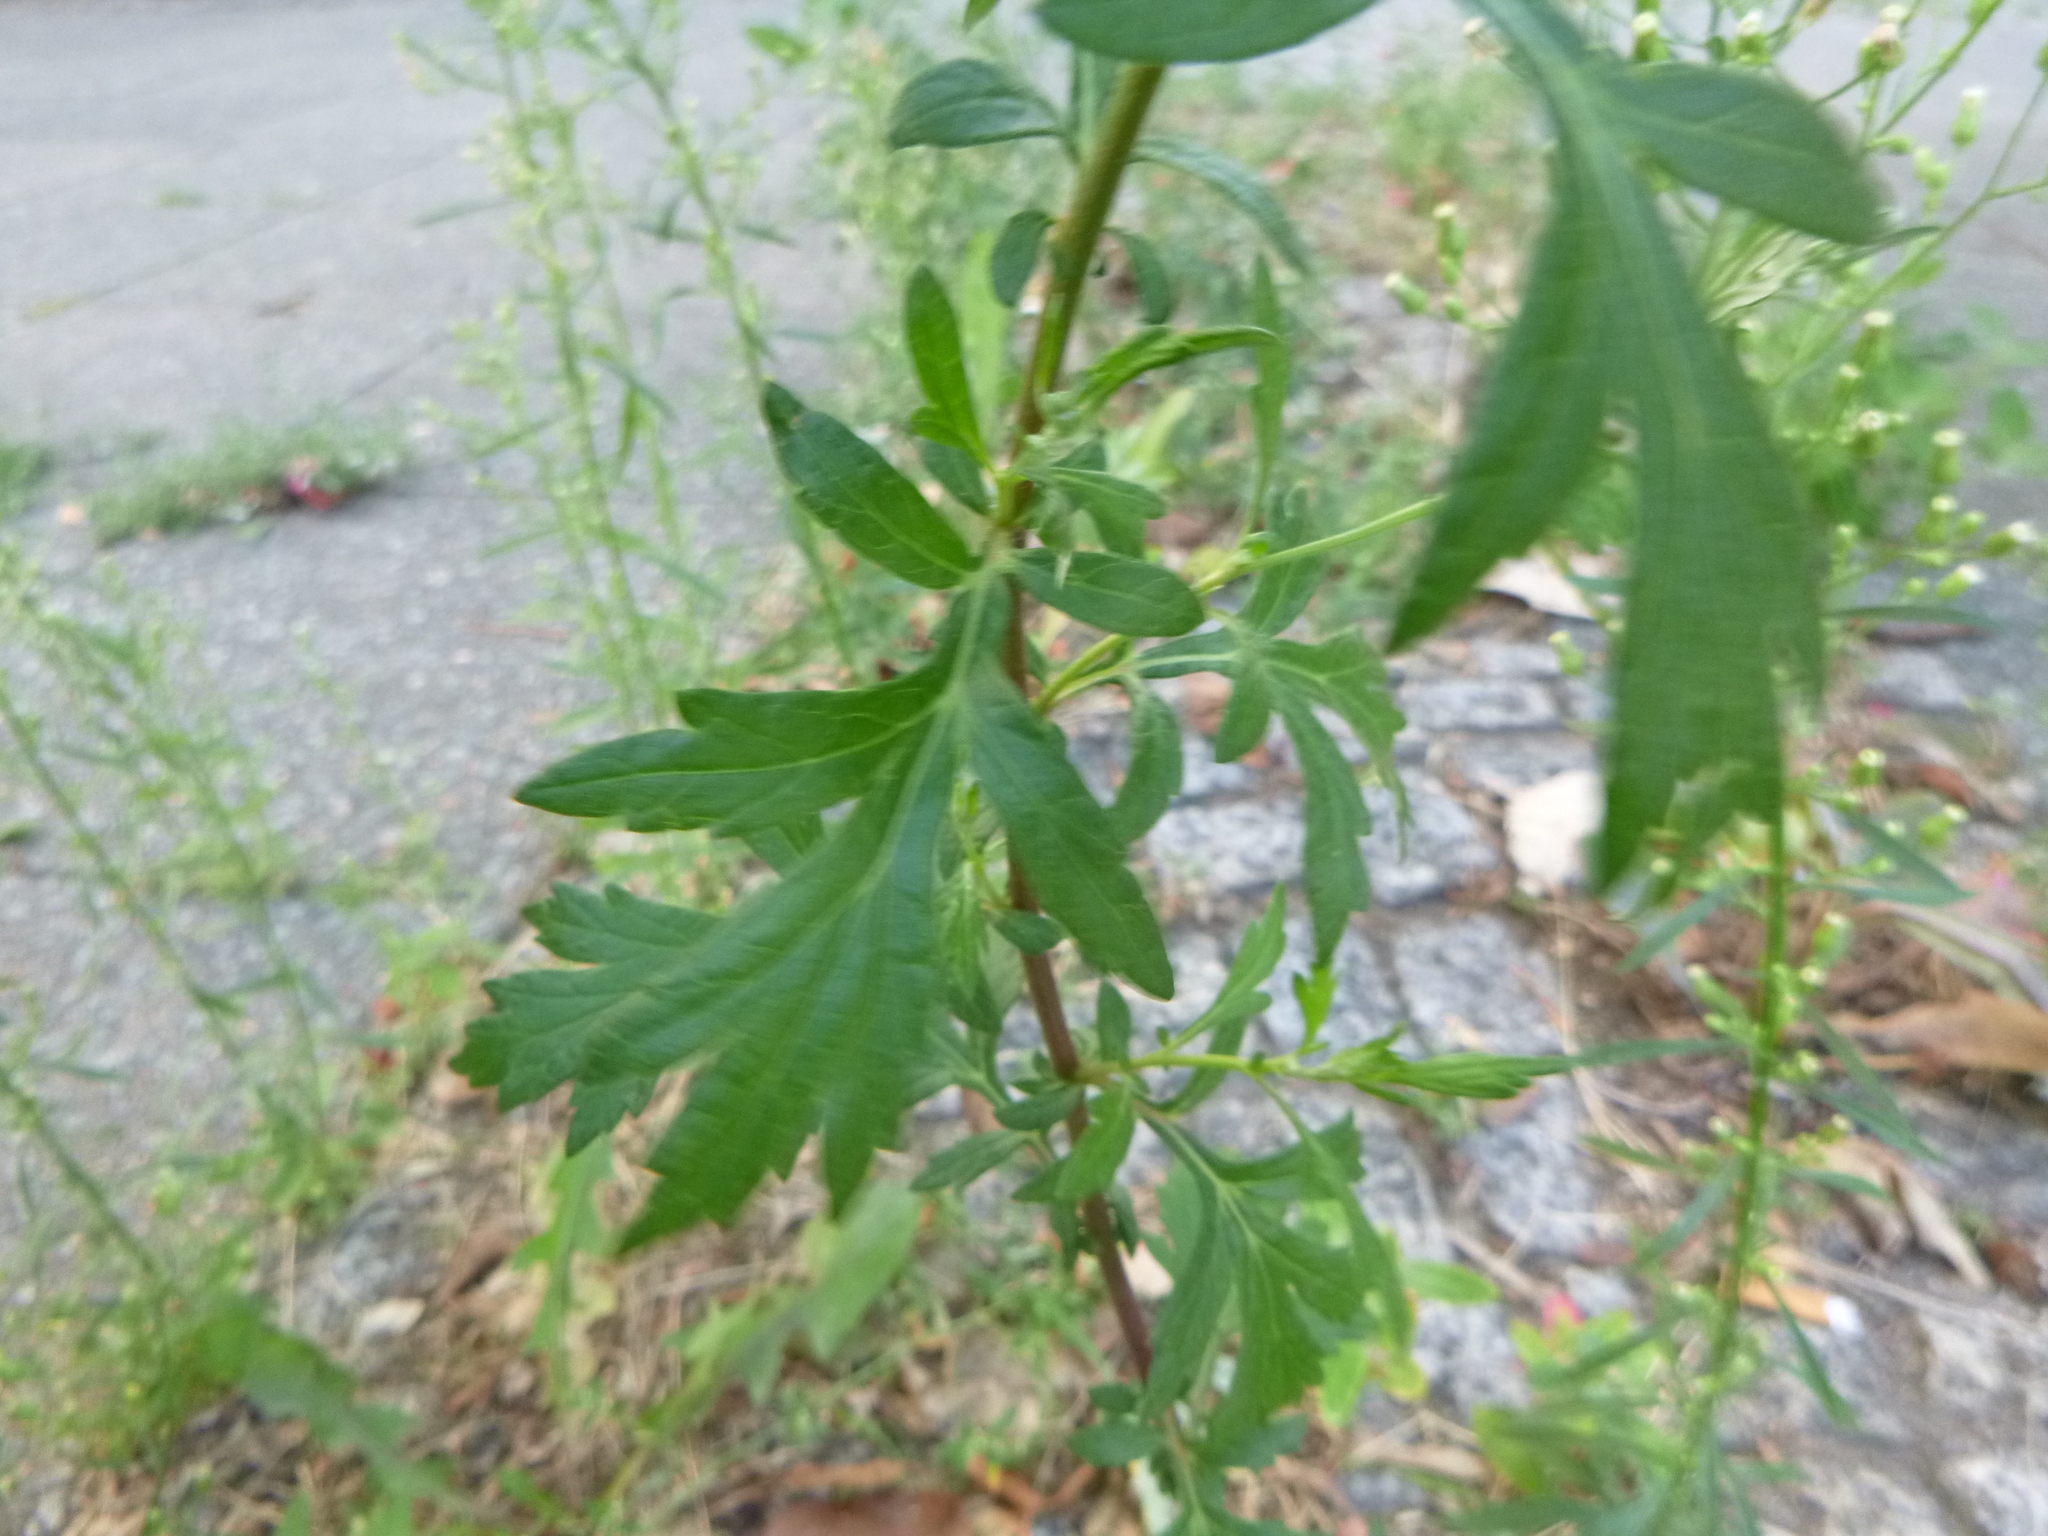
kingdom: Plantae
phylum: Tracheophyta
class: Magnoliopsida
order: Asterales
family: Asteraceae
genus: Artemisia
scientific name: Artemisia vulgaris
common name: Mugwort
